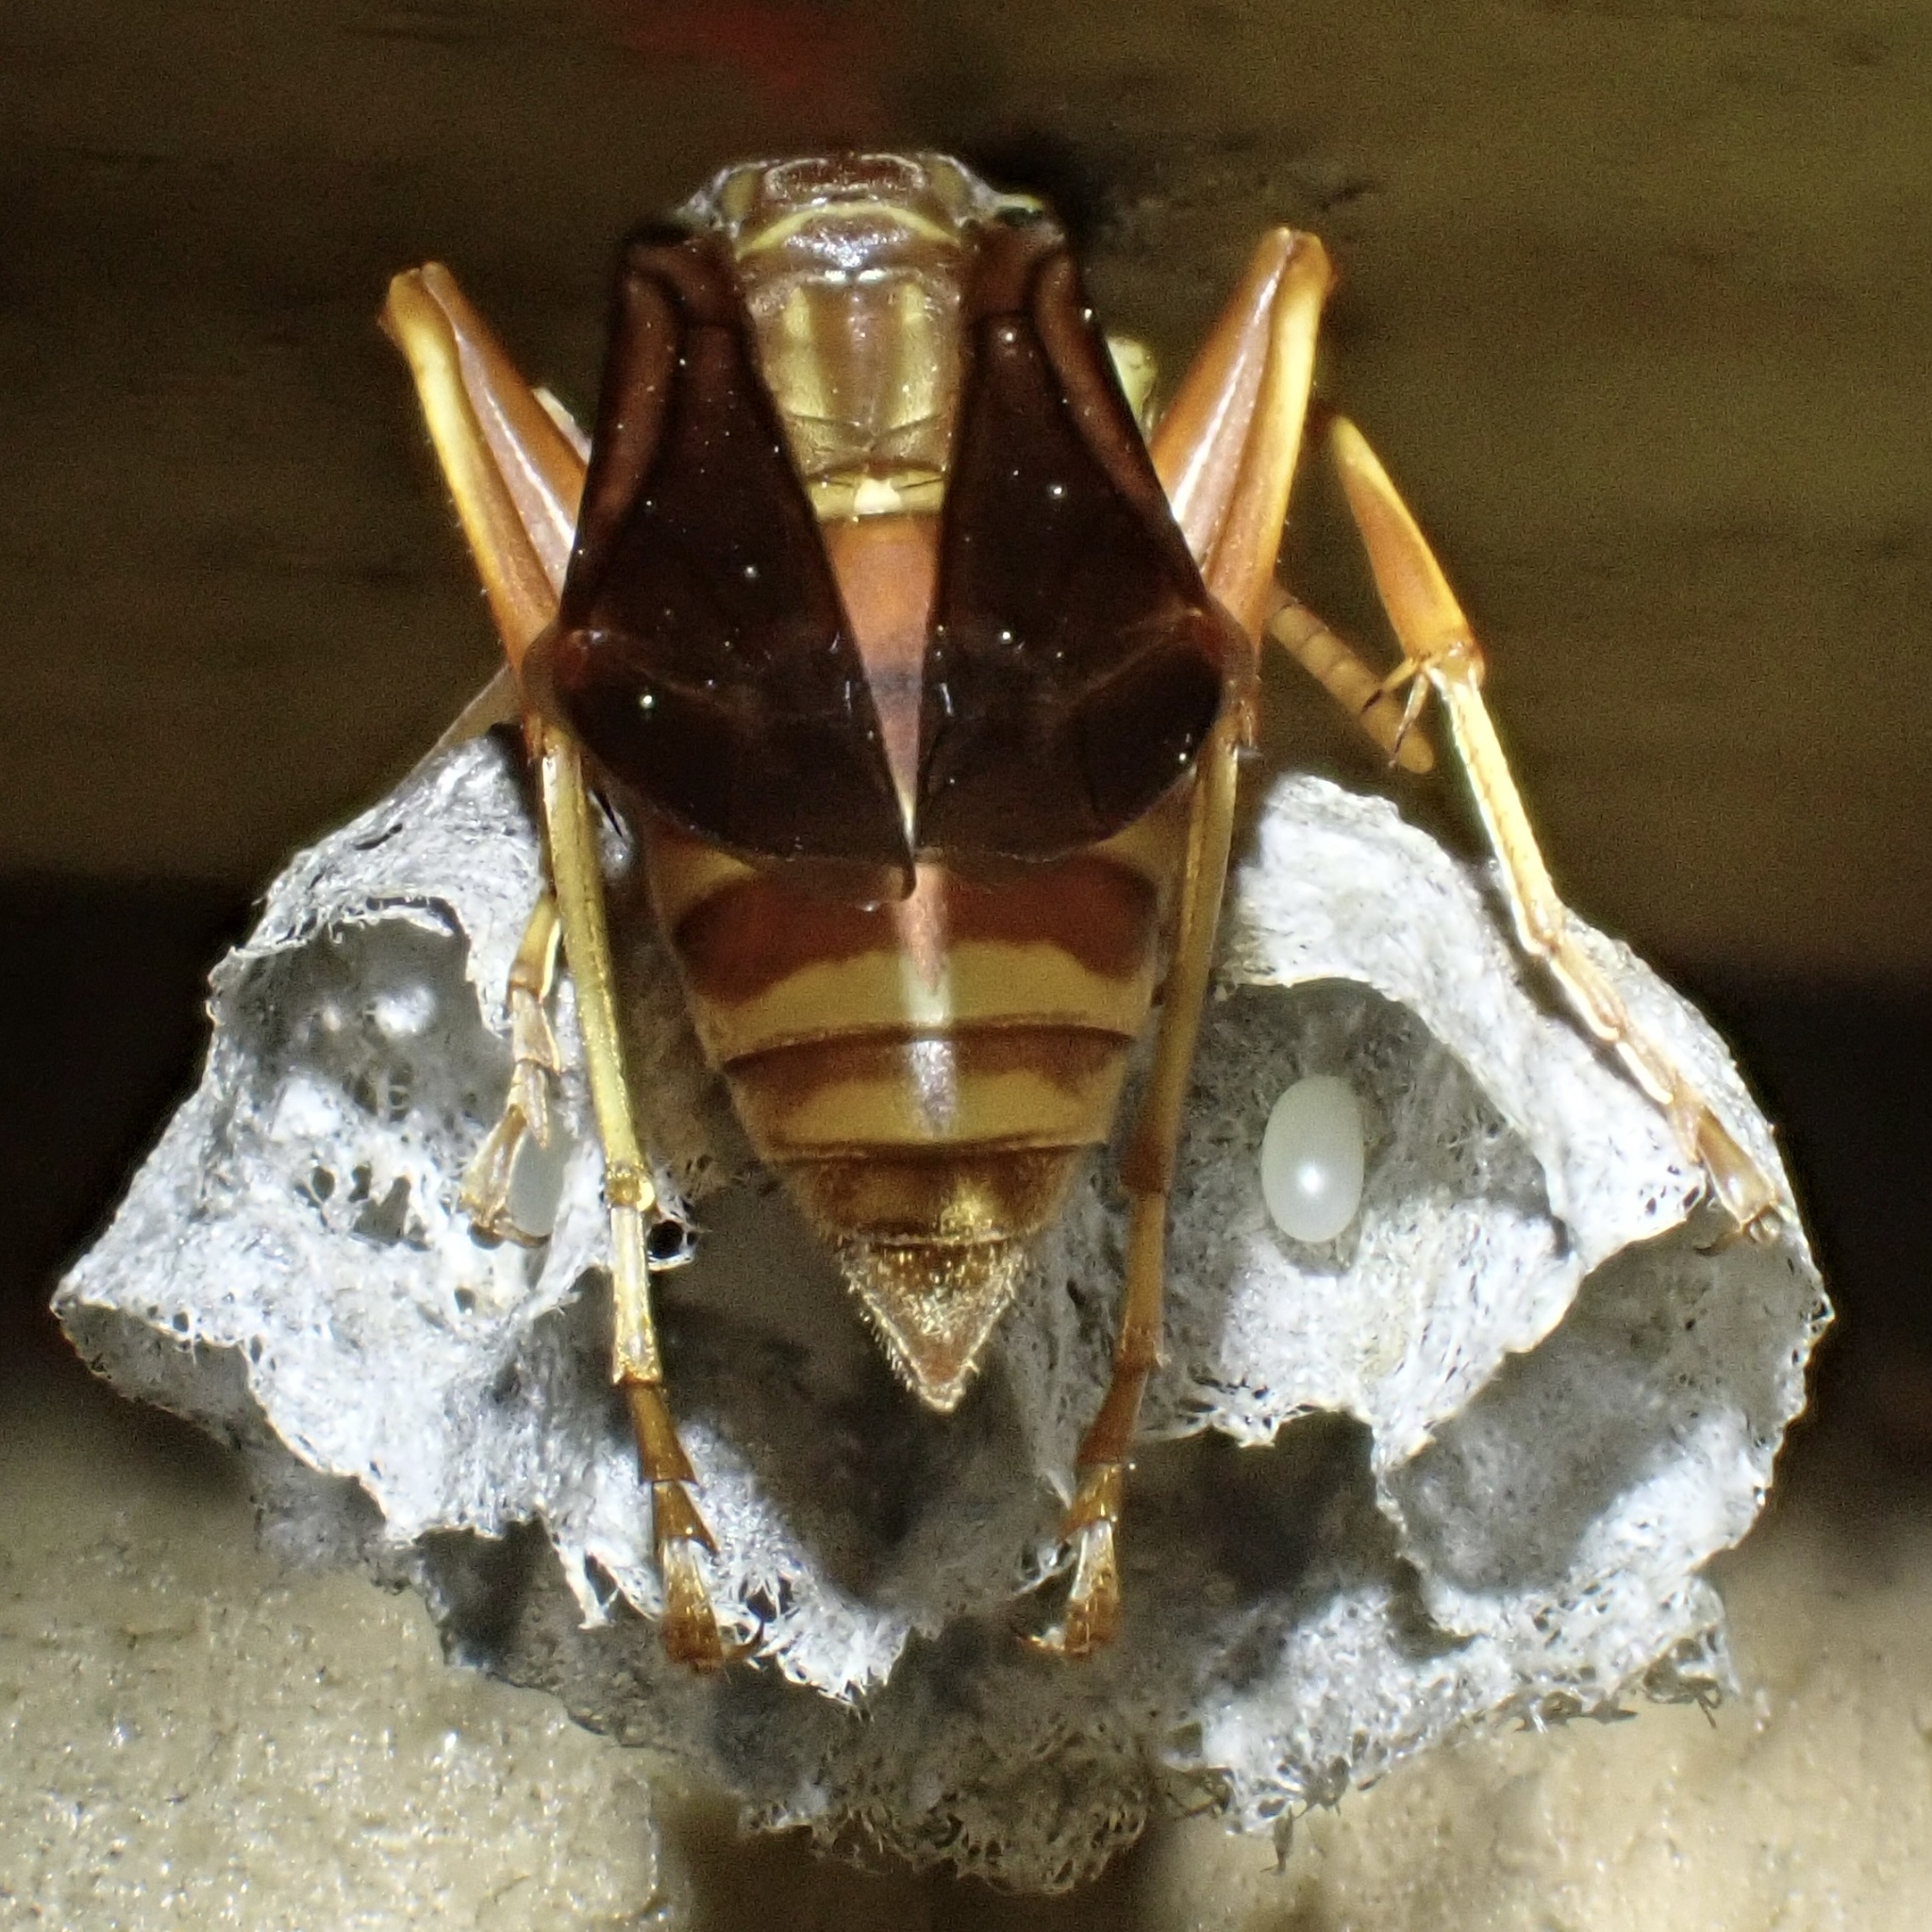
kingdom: Animalia
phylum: Arthropoda
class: Insecta
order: Hymenoptera
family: Eumenidae
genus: Polistes
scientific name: Polistes bellicosus
